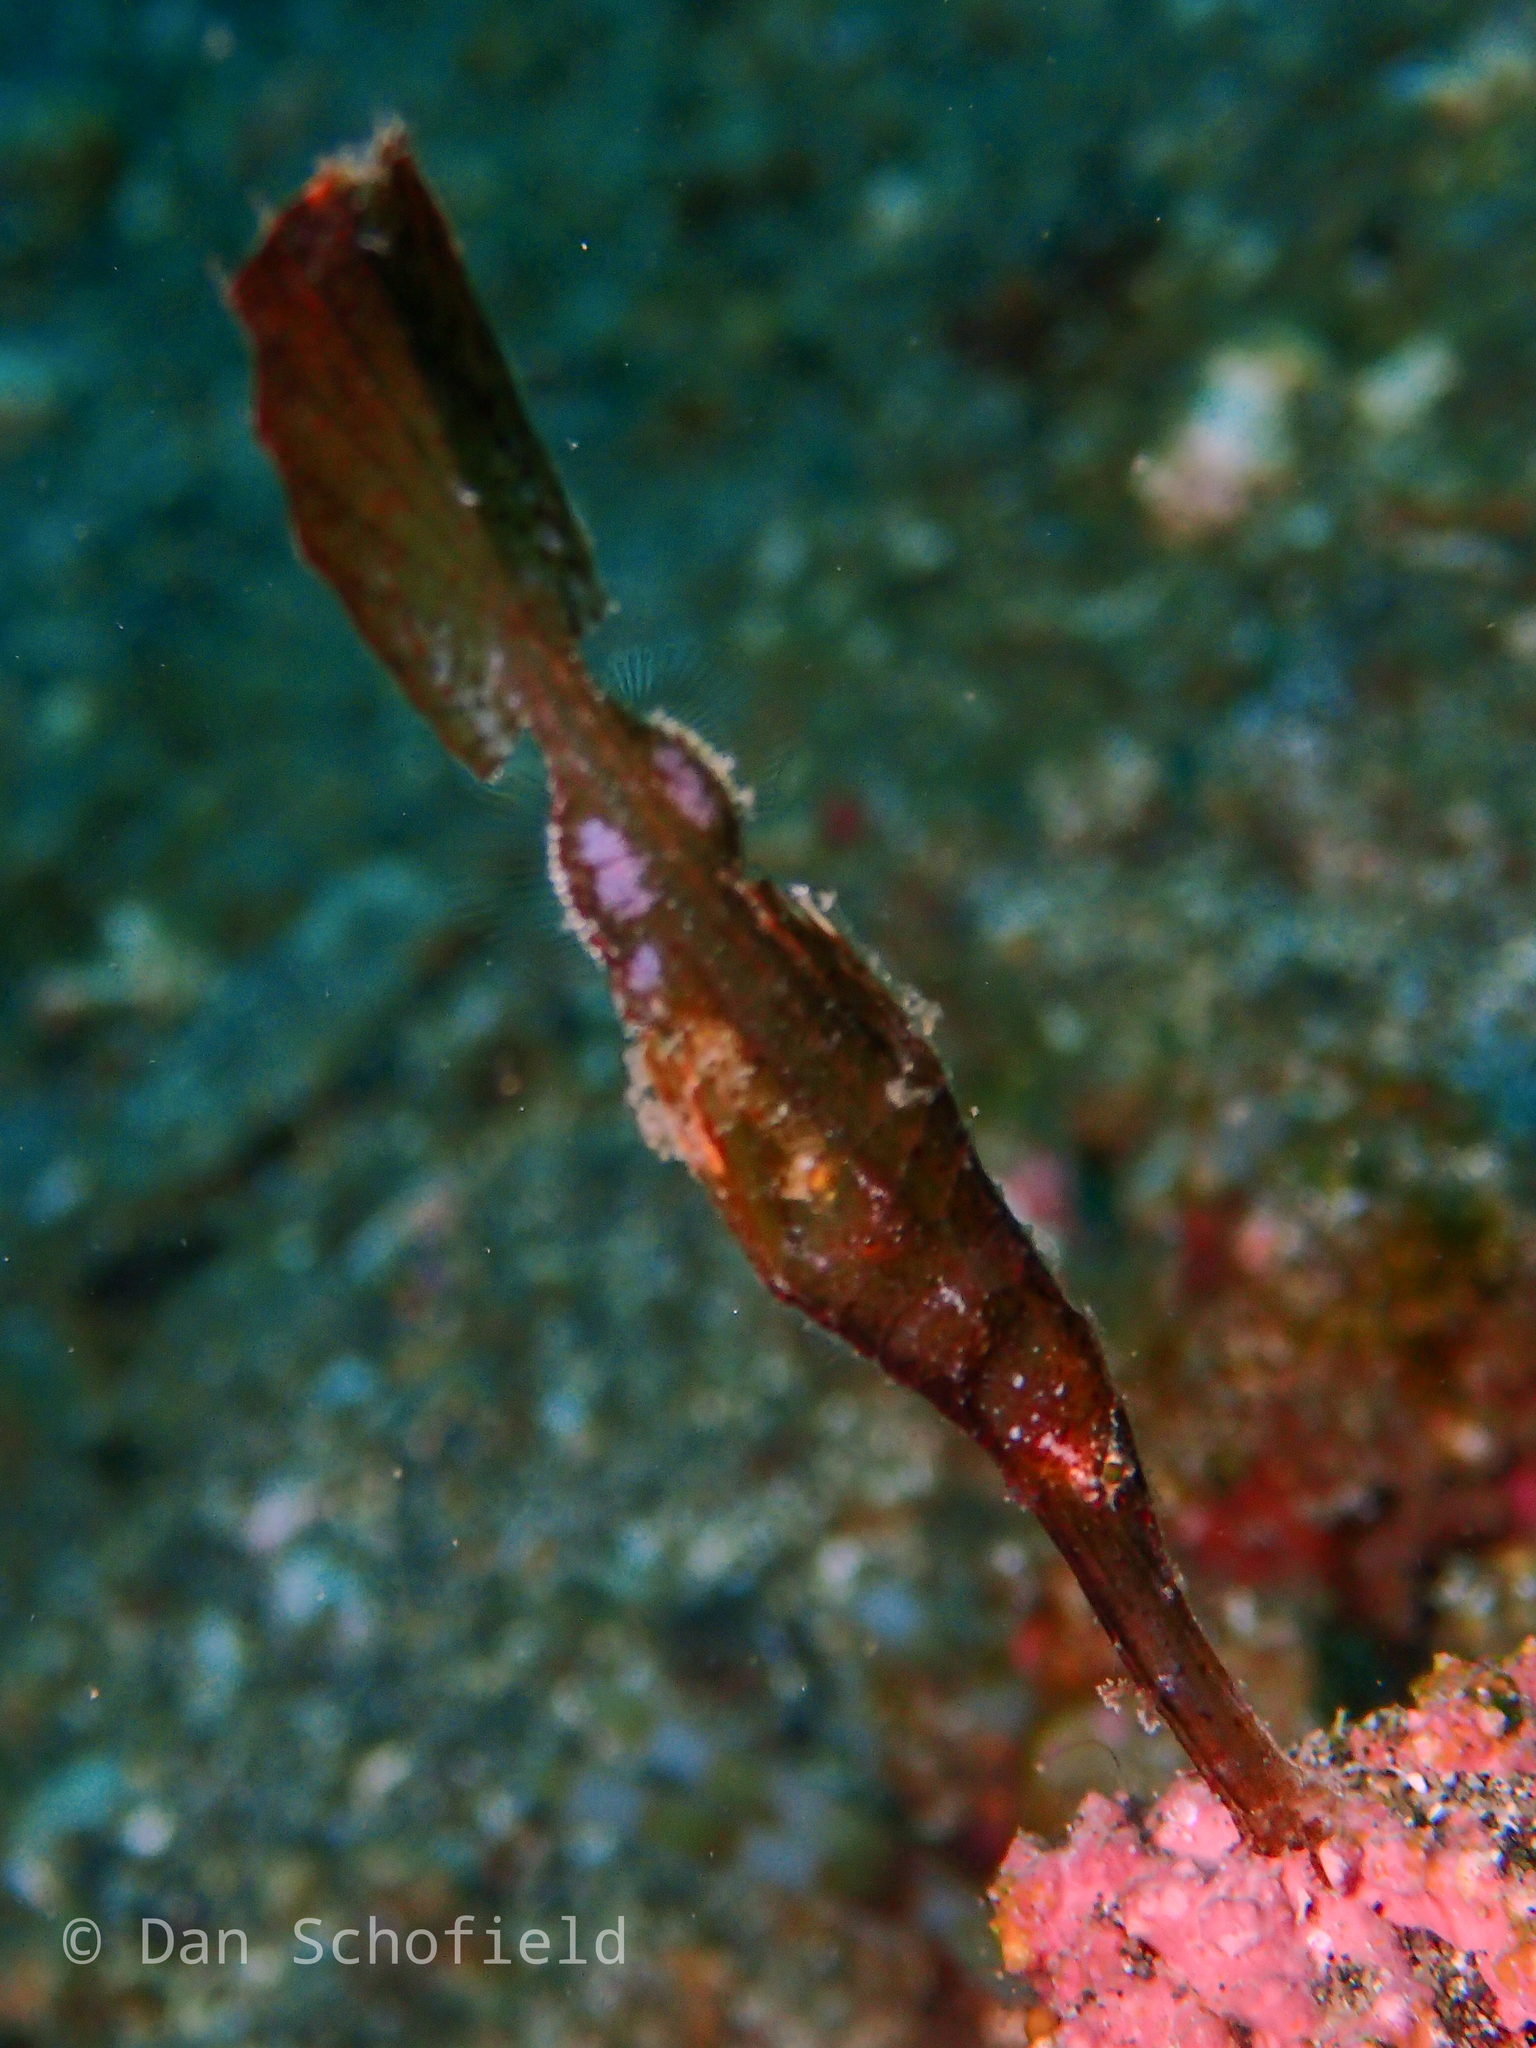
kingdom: Animalia
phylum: Chordata
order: Syngnathiformes
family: Solenostomidae
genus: Solenostomus
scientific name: Solenostomus cyanopterus
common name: Blue-finned ghost pipefish
